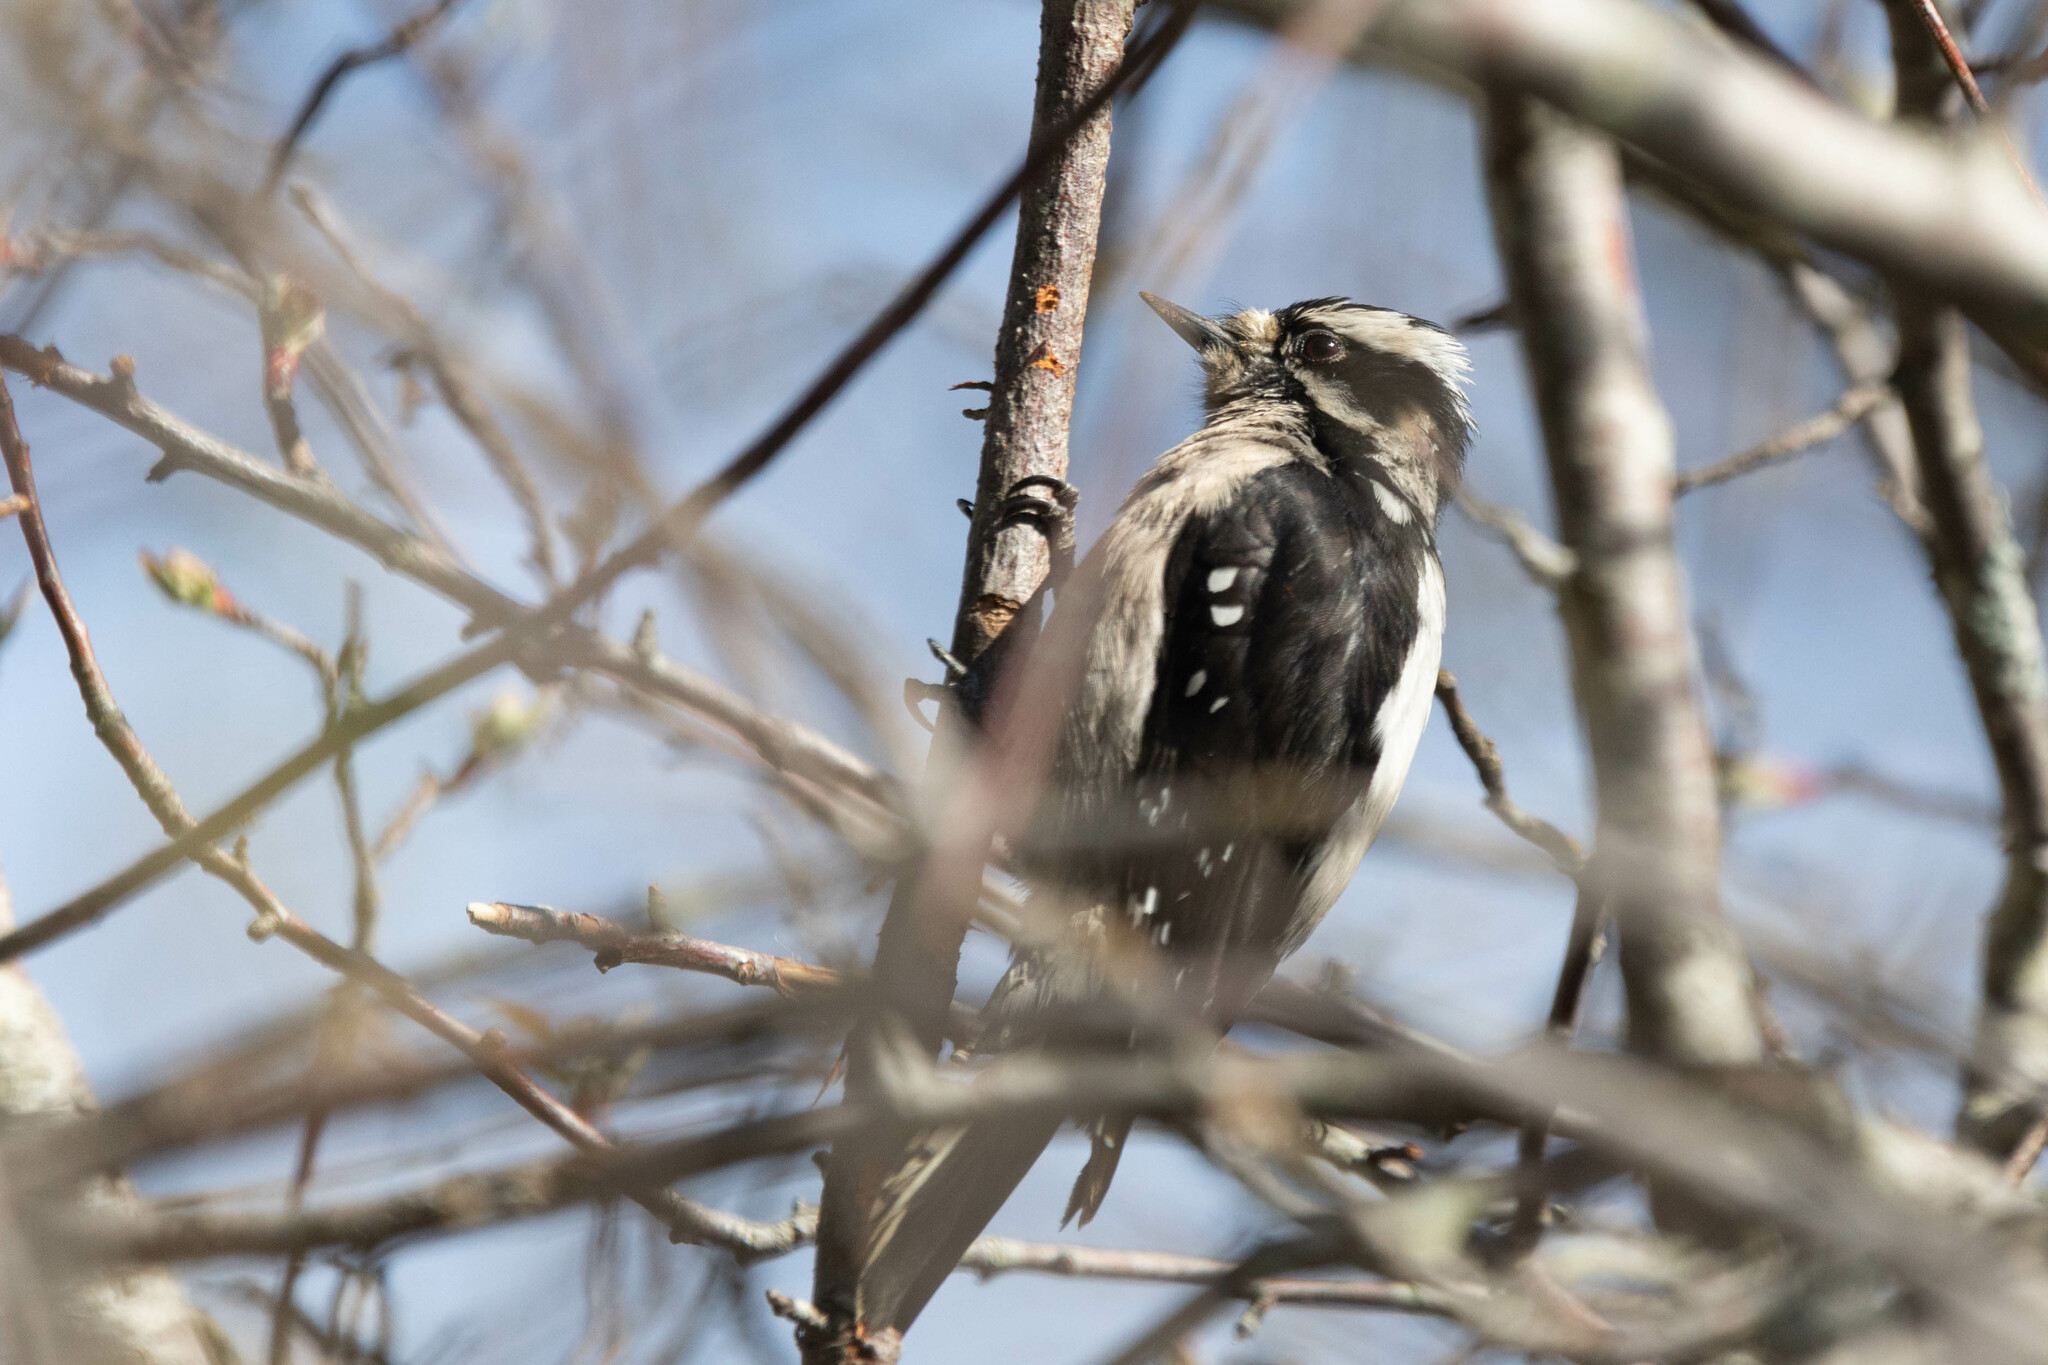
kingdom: Animalia
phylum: Chordata
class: Aves
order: Piciformes
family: Picidae
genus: Dryobates
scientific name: Dryobates pubescens
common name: Downy woodpecker
